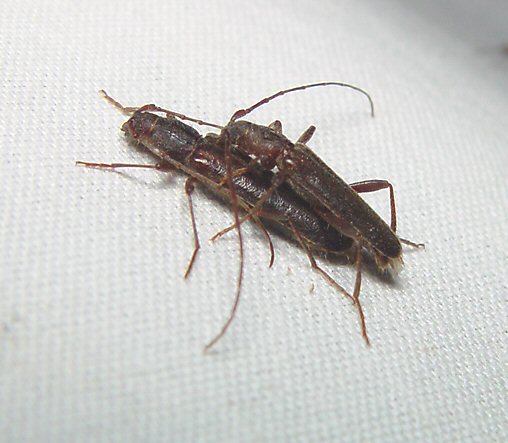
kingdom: Animalia
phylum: Arthropoda
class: Insecta
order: Coleoptera
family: Cerambycidae
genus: Haplidus
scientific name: Haplidus testaceus
